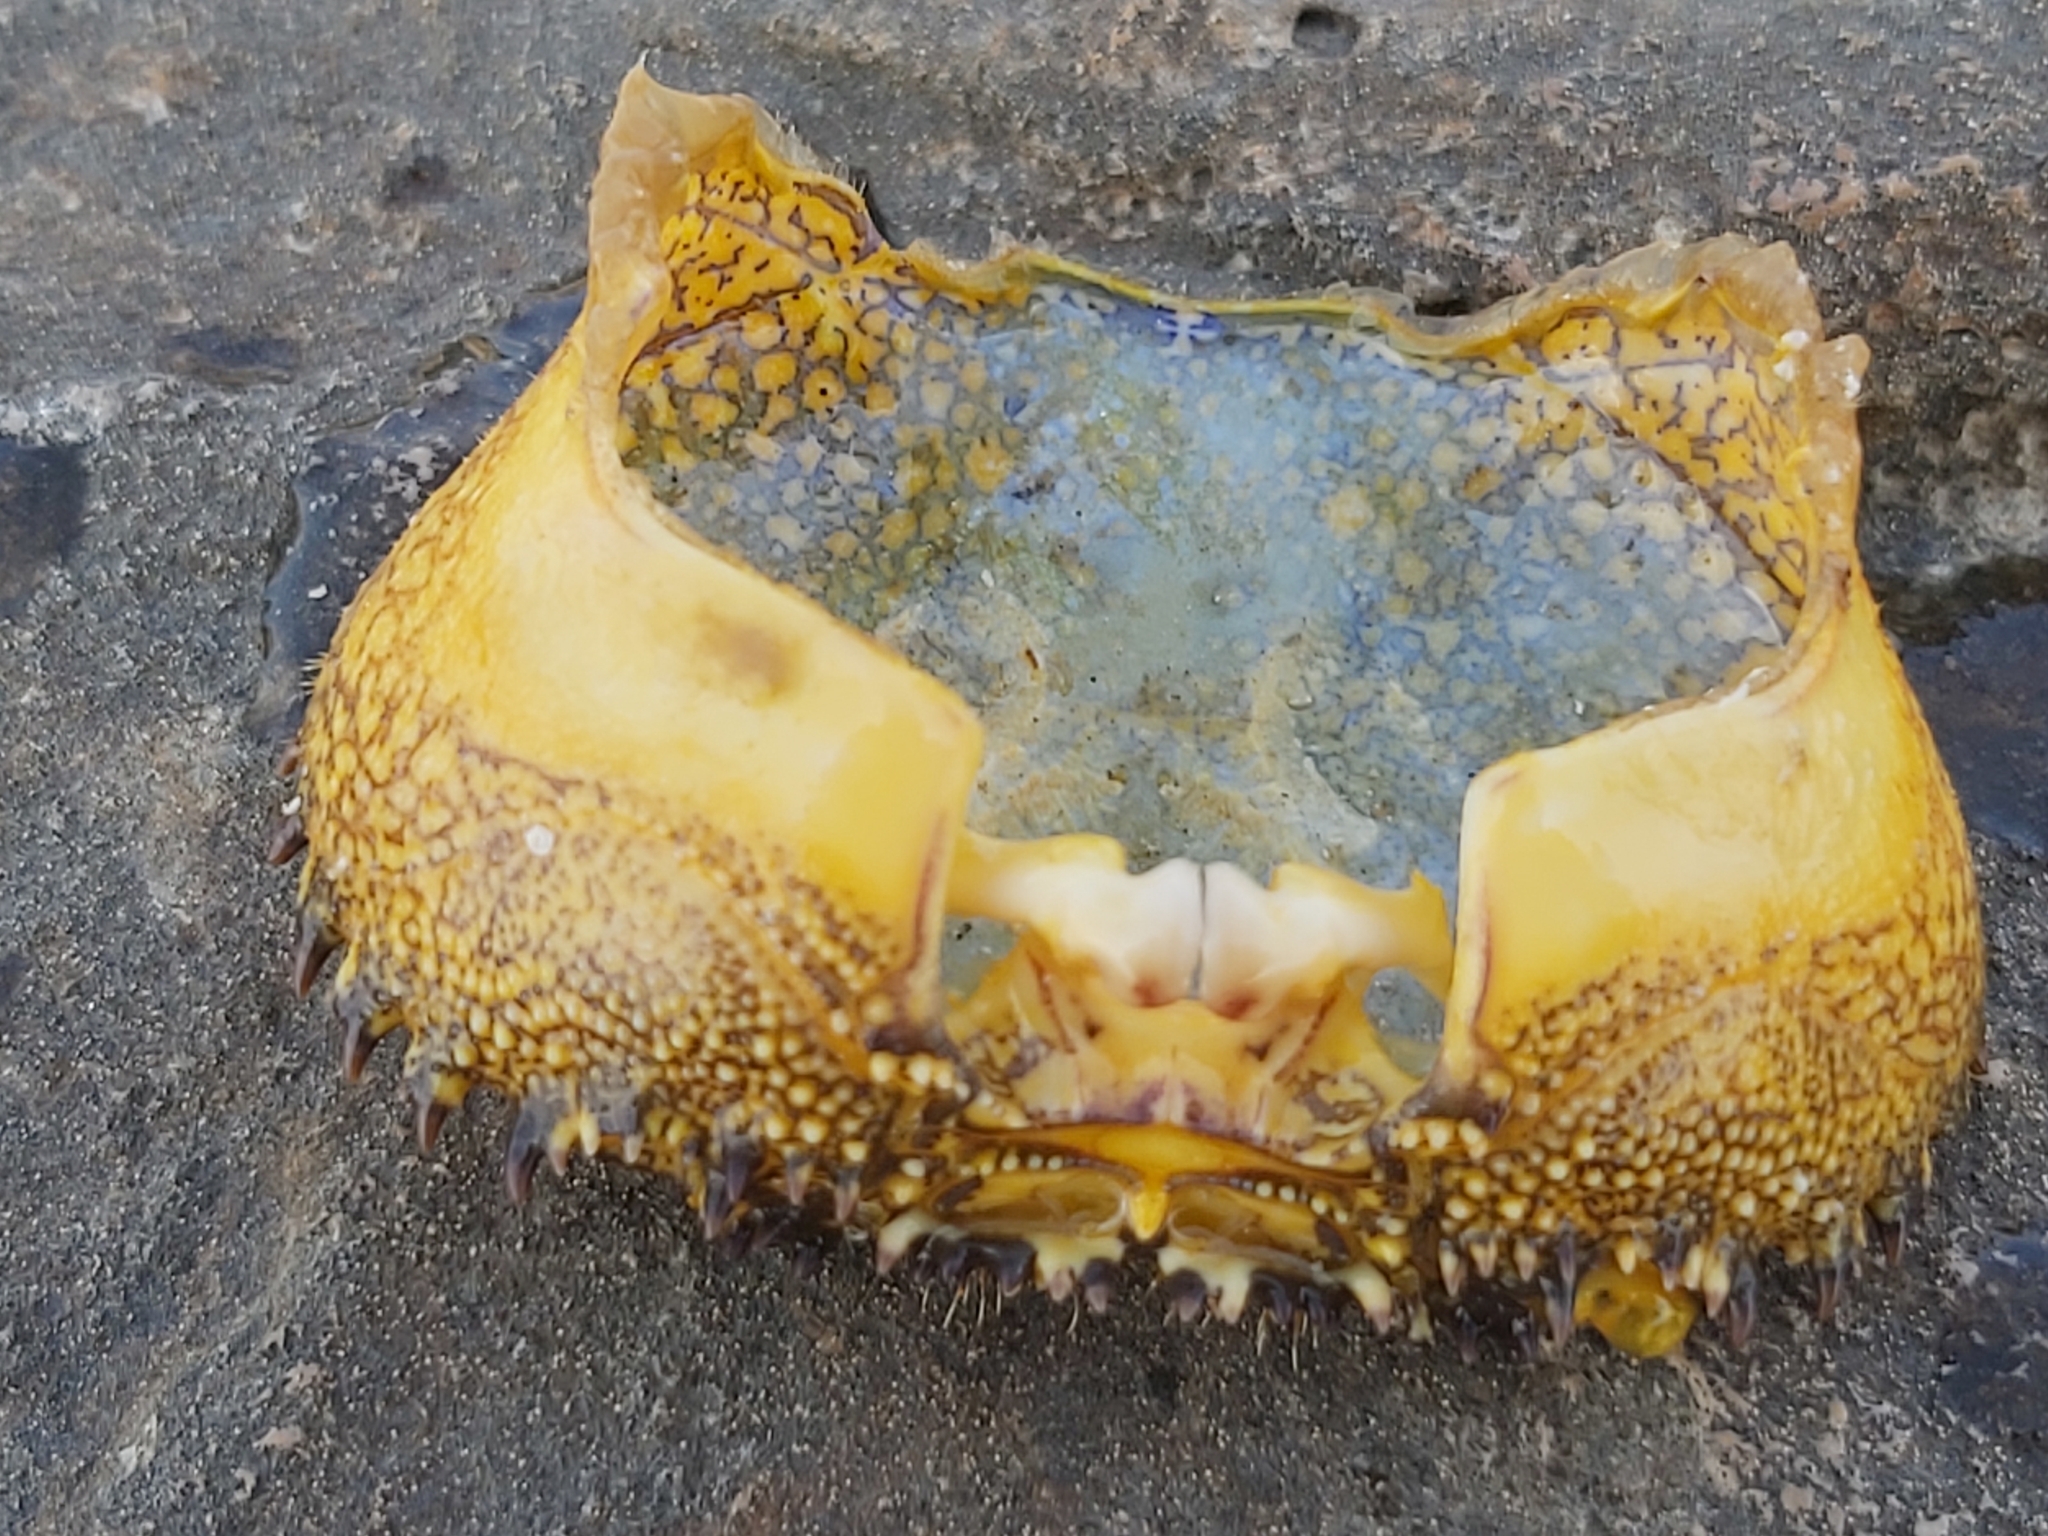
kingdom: Animalia
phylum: Arthropoda
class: Malacostraca
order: Decapoda
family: Eriphiidae
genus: Eriphia
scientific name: Eriphia verrucosa
